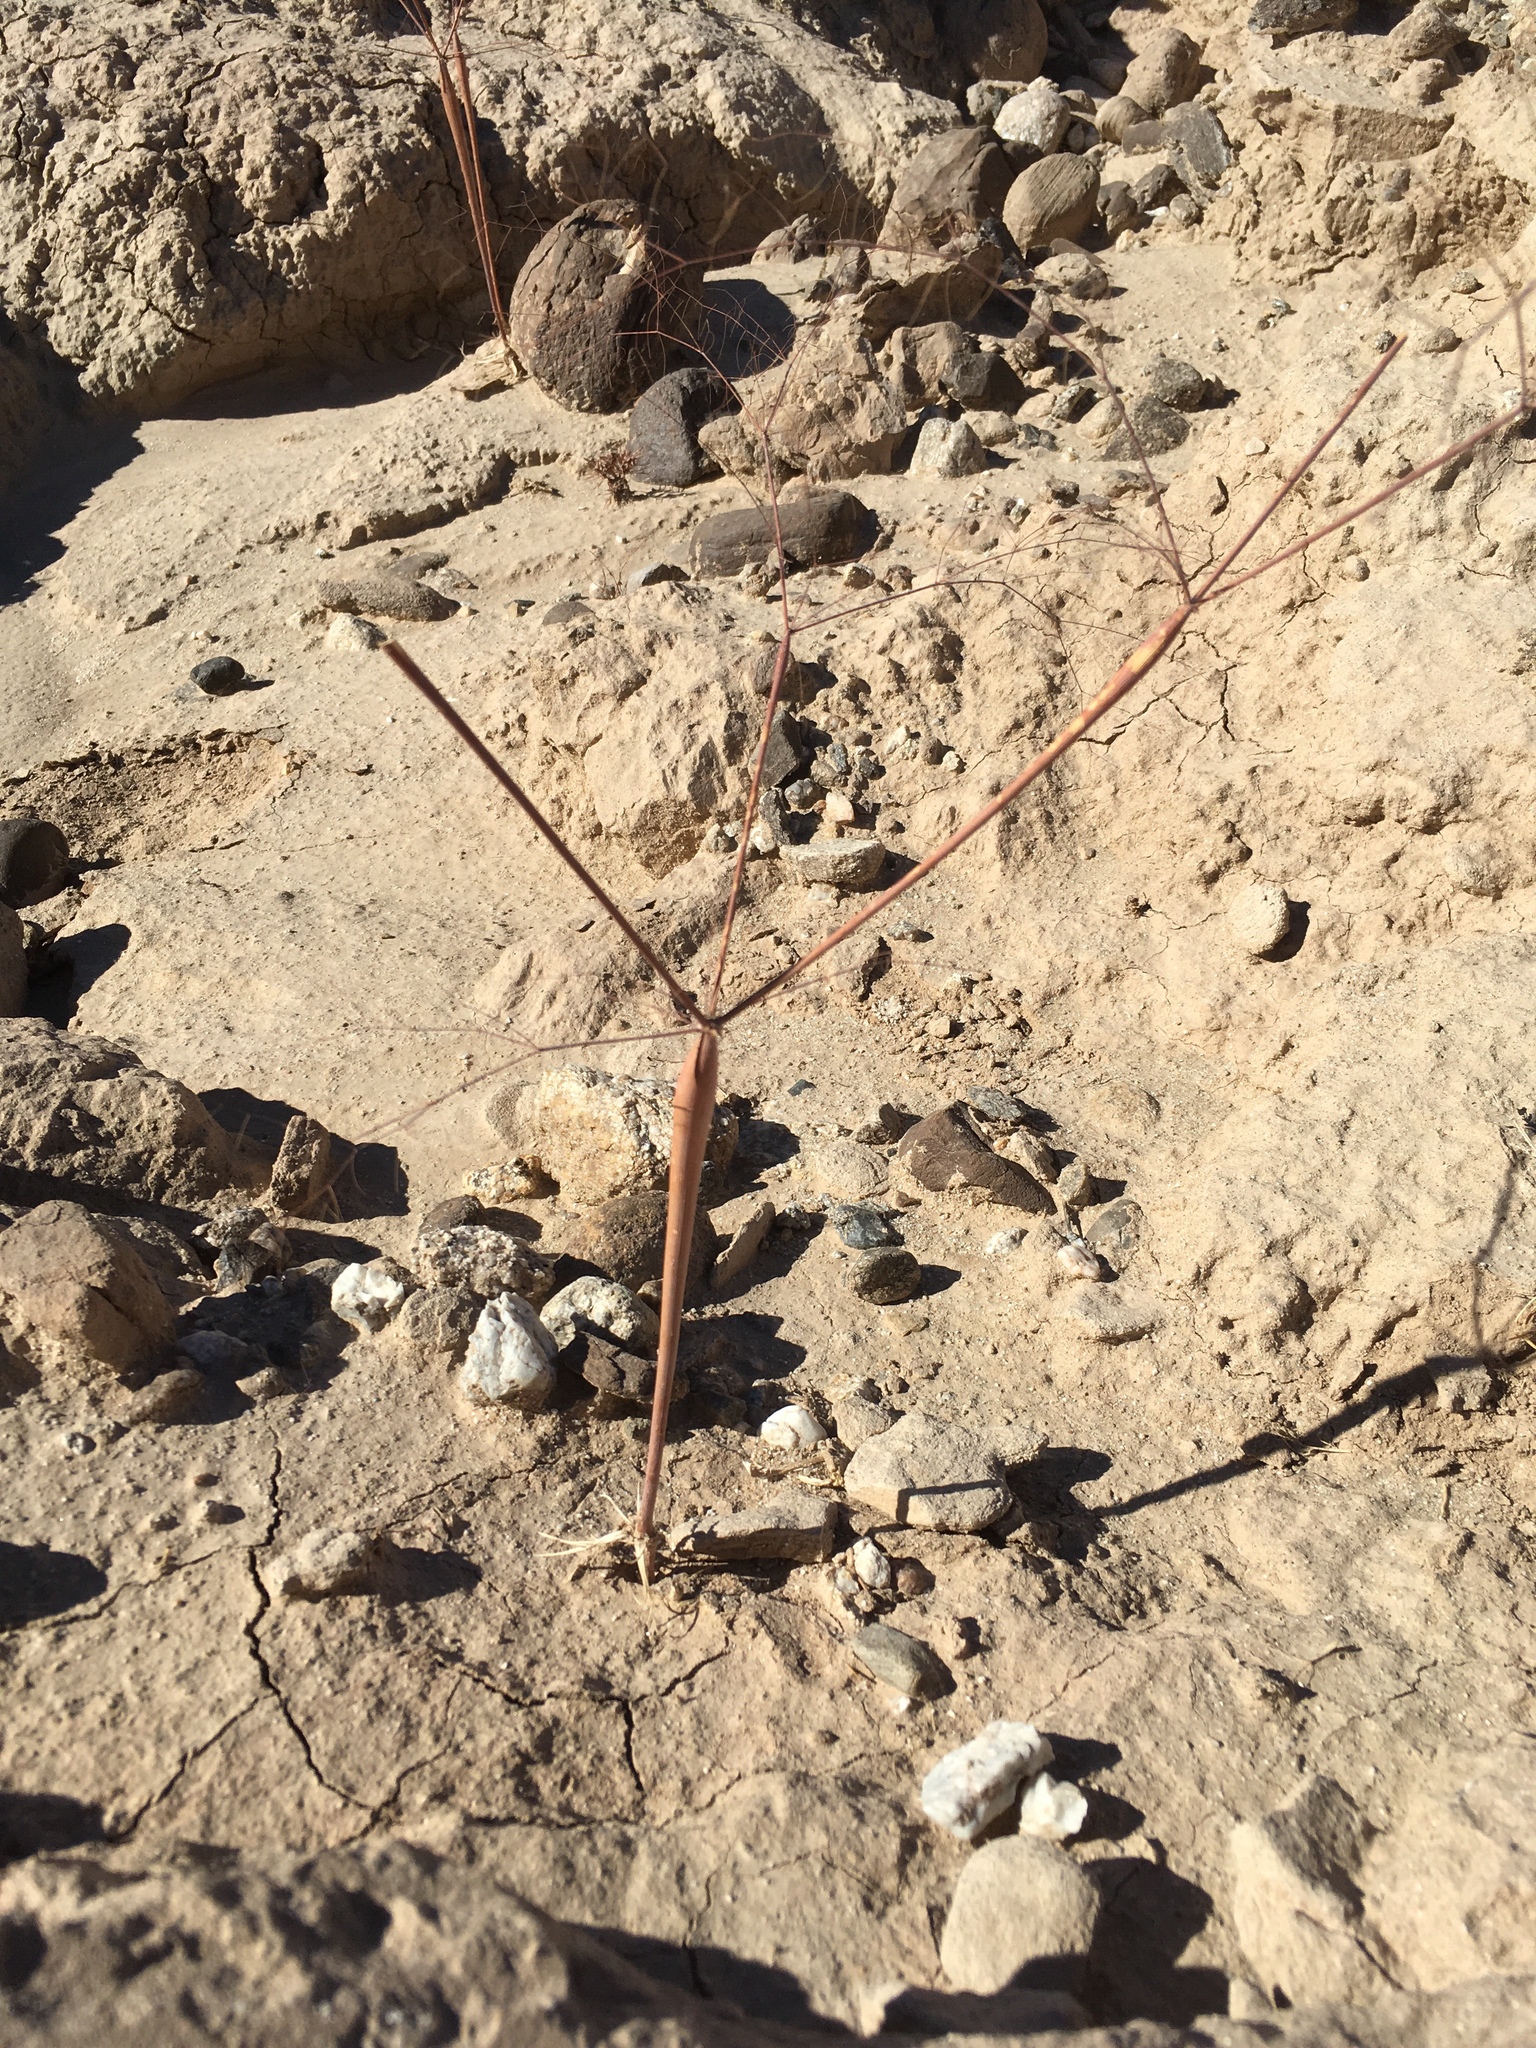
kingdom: Plantae
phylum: Tracheophyta
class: Magnoliopsida
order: Caryophyllales
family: Polygonaceae
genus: Eriogonum
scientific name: Eriogonum trichopes
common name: Little desert trumpet
